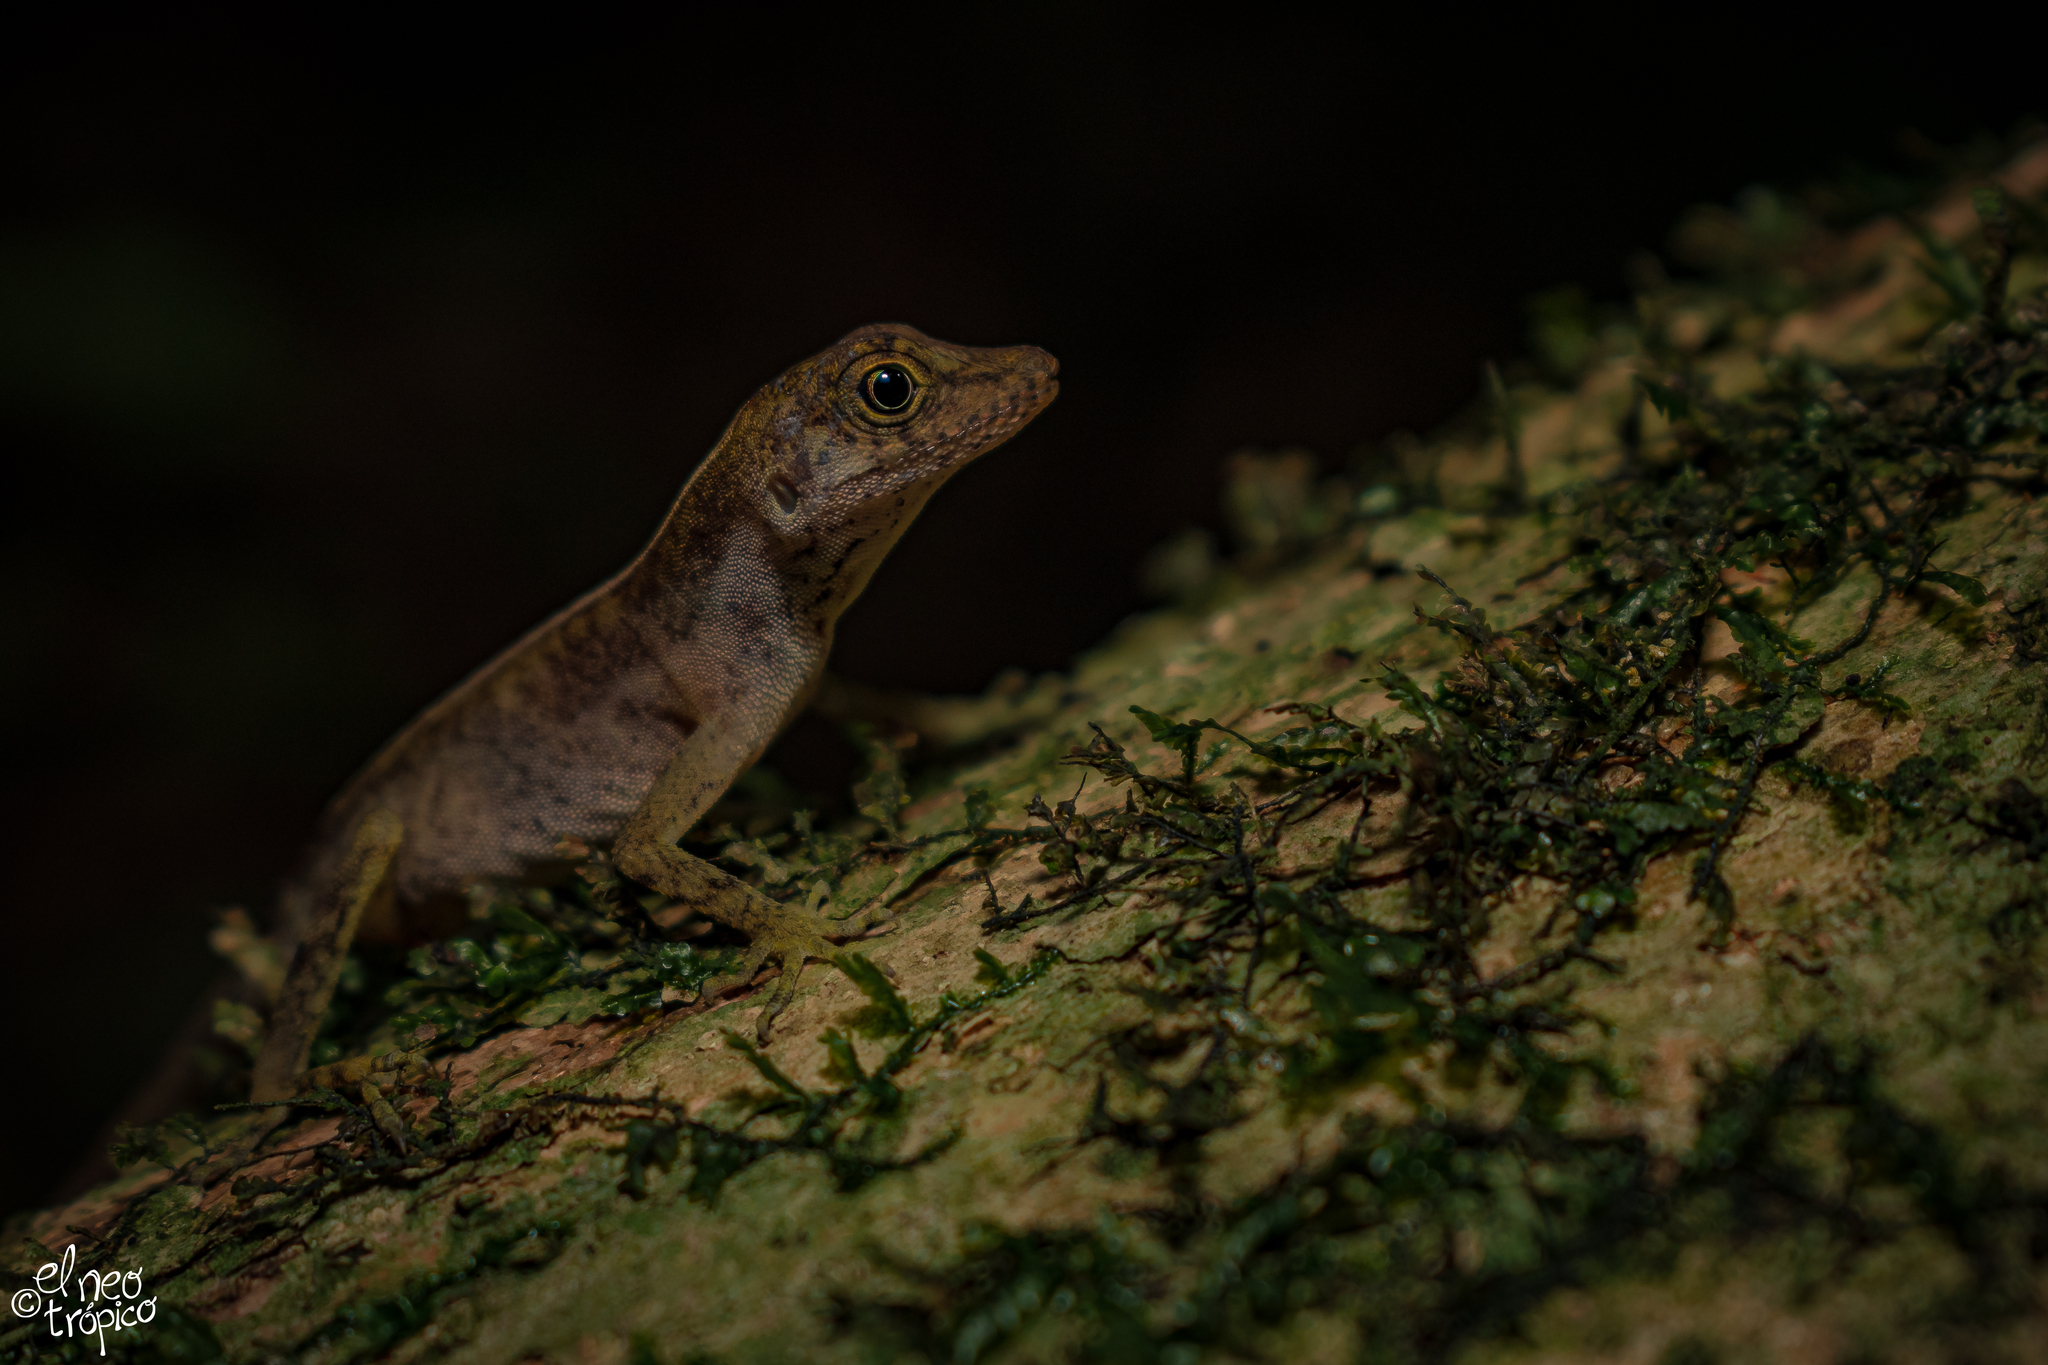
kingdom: Animalia
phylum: Chordata
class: Squamata
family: Dactyloidae
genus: Anolis
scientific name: Anolis parvicirculatus
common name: Berriozabal anole
